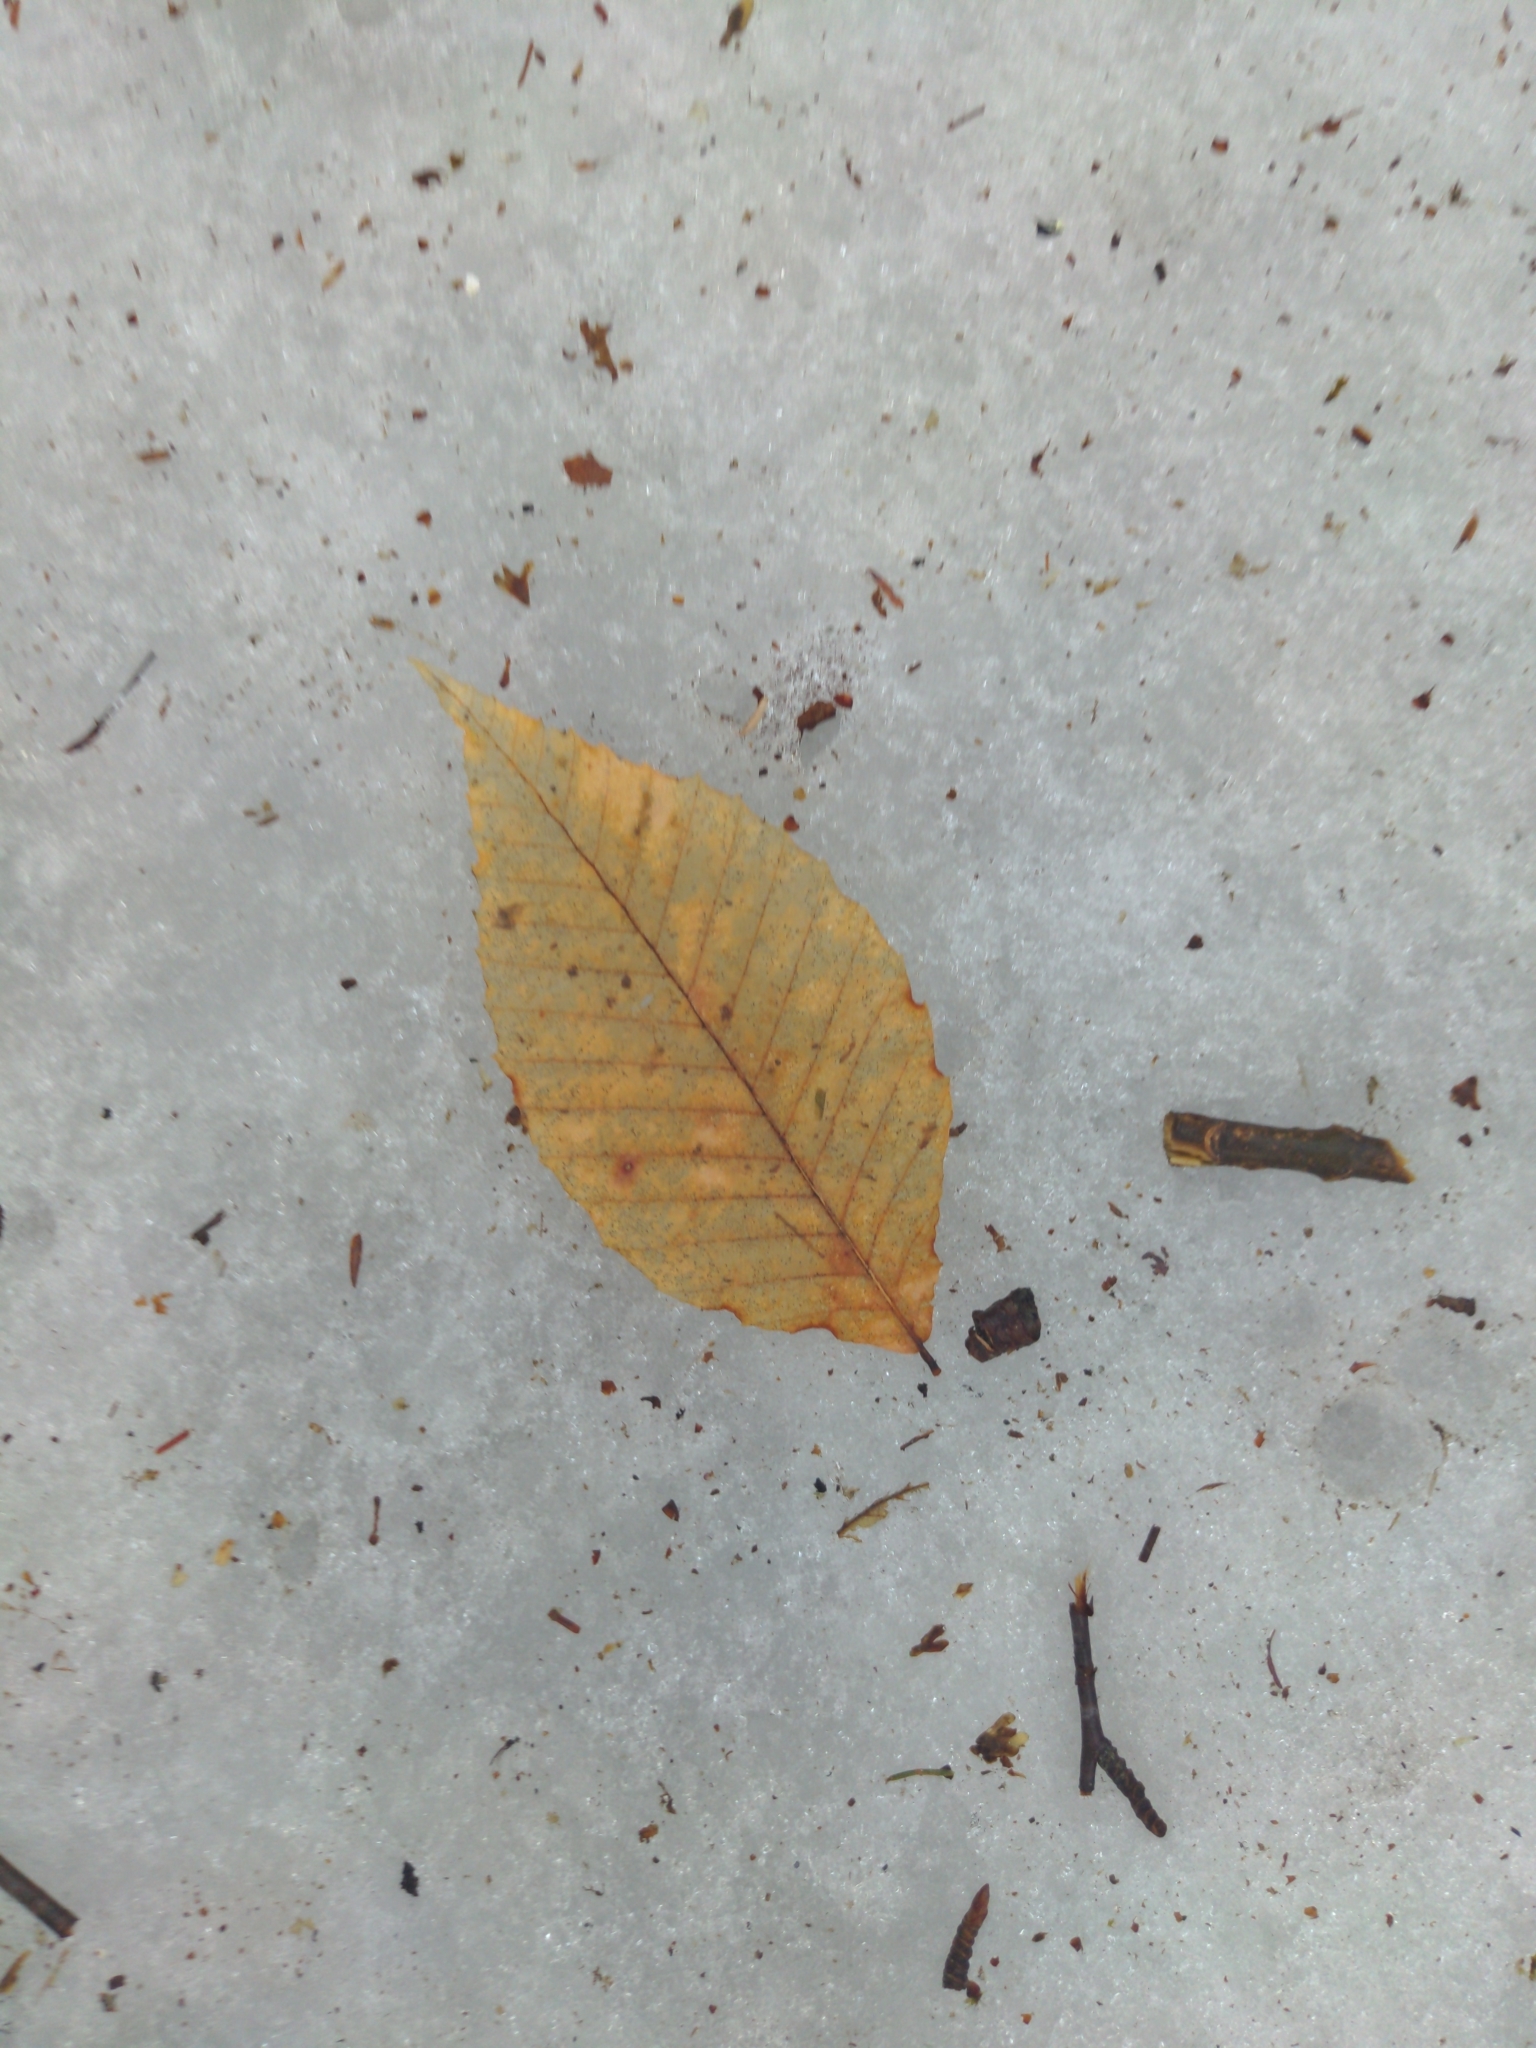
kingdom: Plantae
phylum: Tracheophyta
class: Magnoliopsida
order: Fagales
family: Fagaceae
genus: Fagus
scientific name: Fagus grandifolia
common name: American beech
